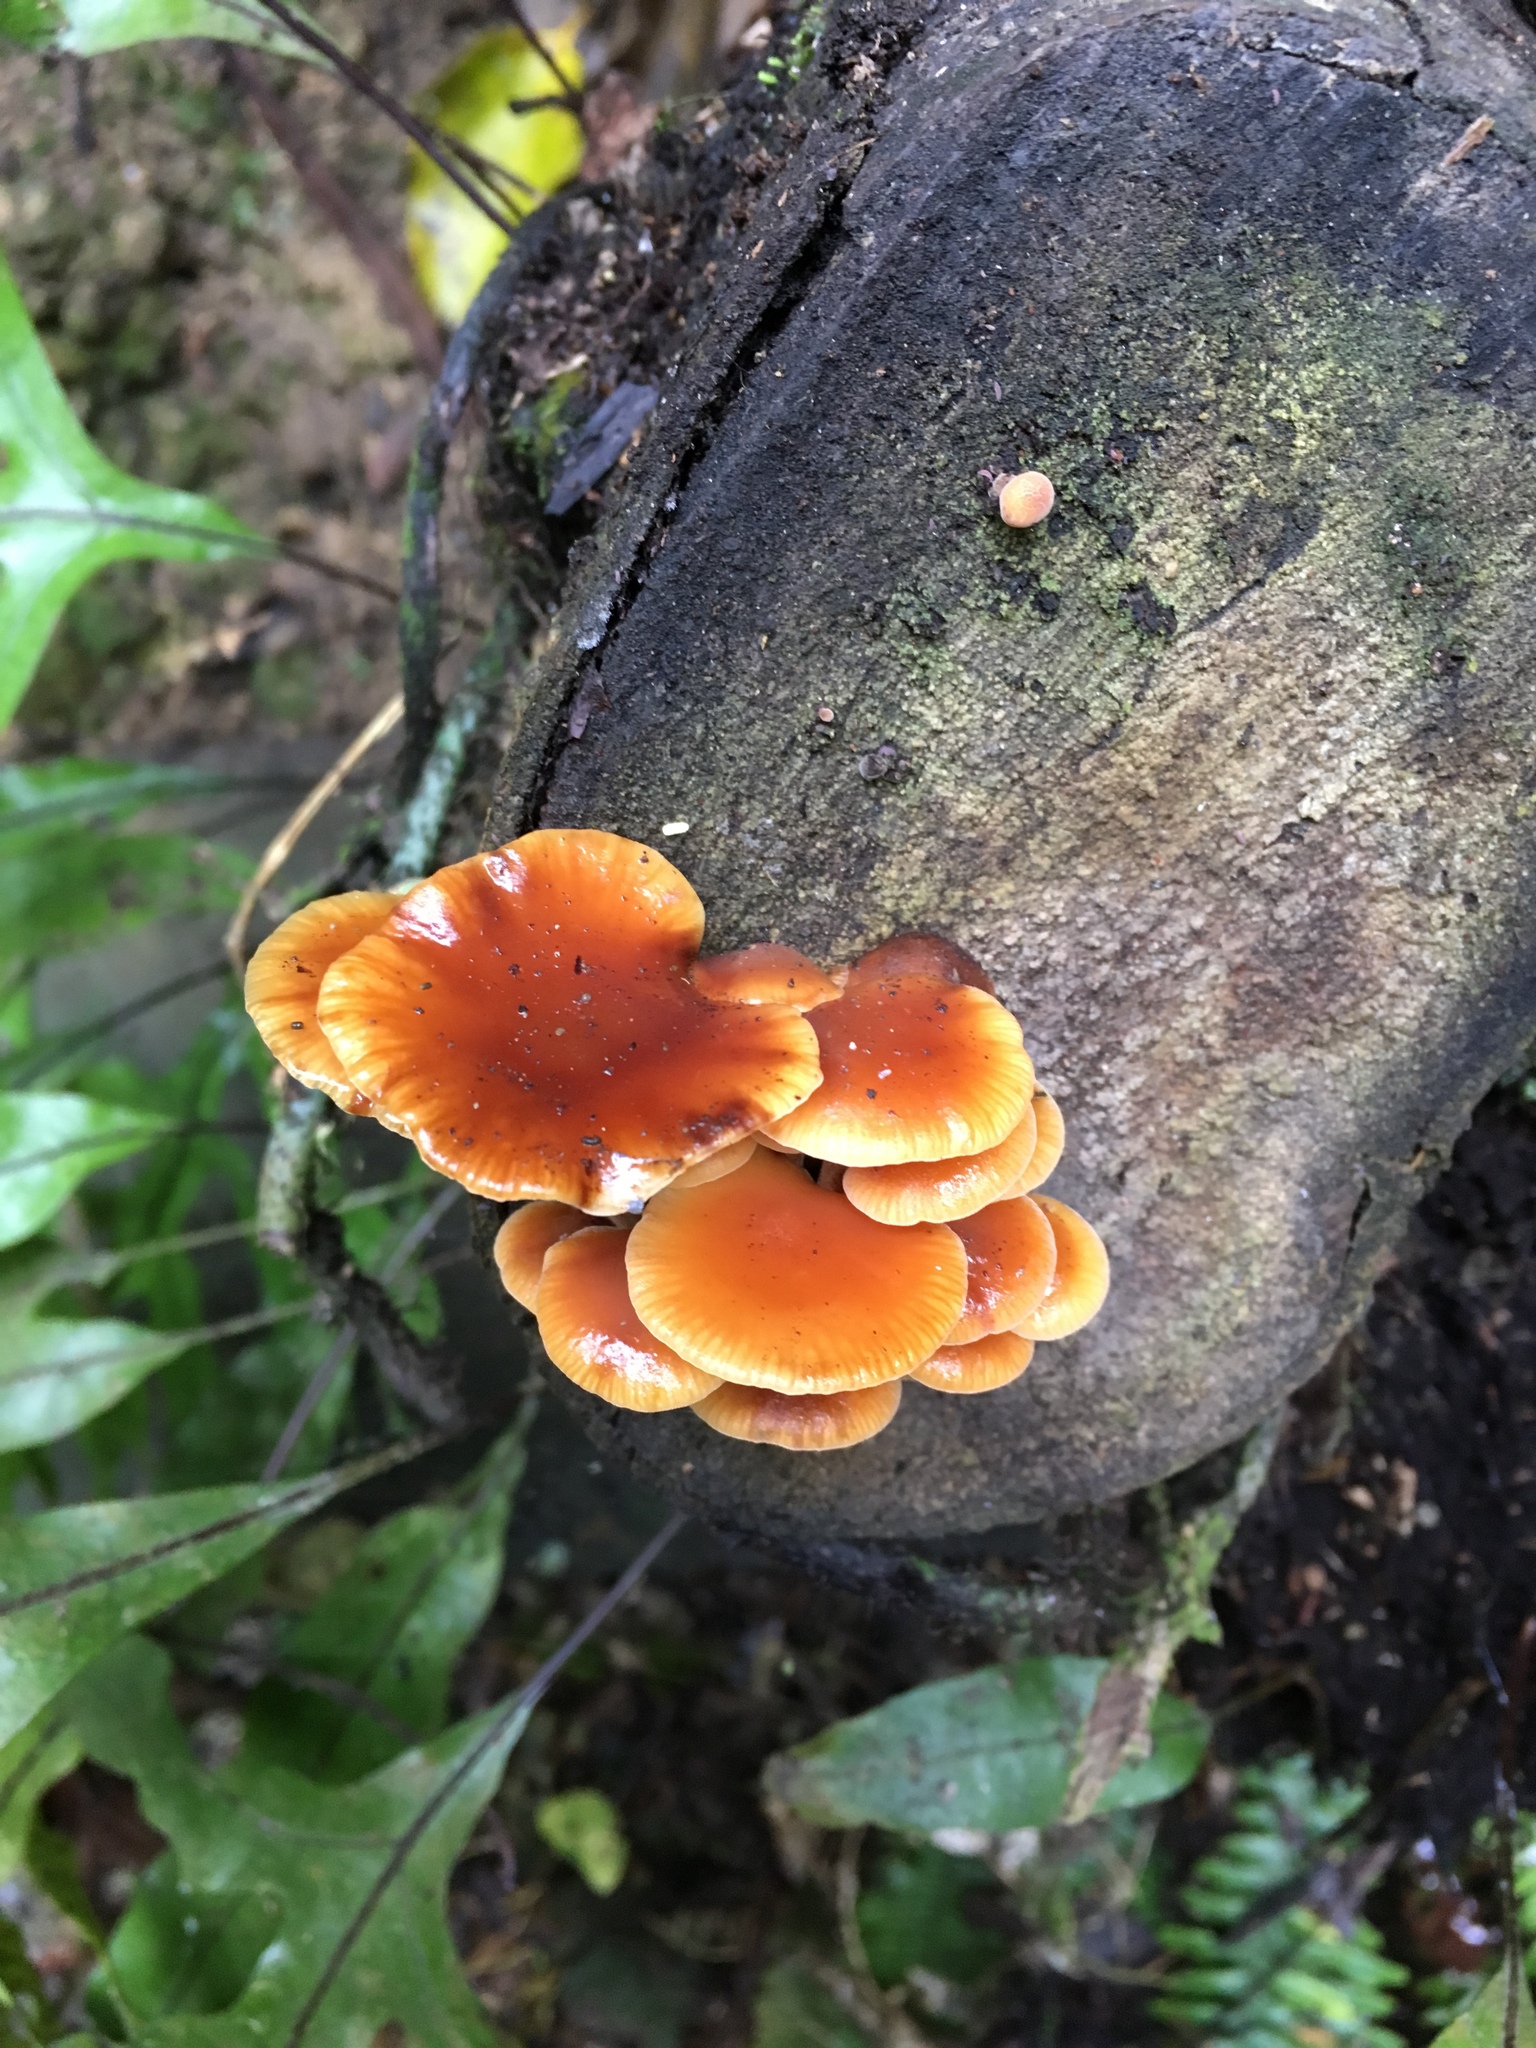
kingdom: Fungi
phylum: Basidiomycota
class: Agaricomycetes
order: Agaricales
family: Physalacriaceae
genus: Flammulina
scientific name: Flammulina velutipes
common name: Velvet shank
